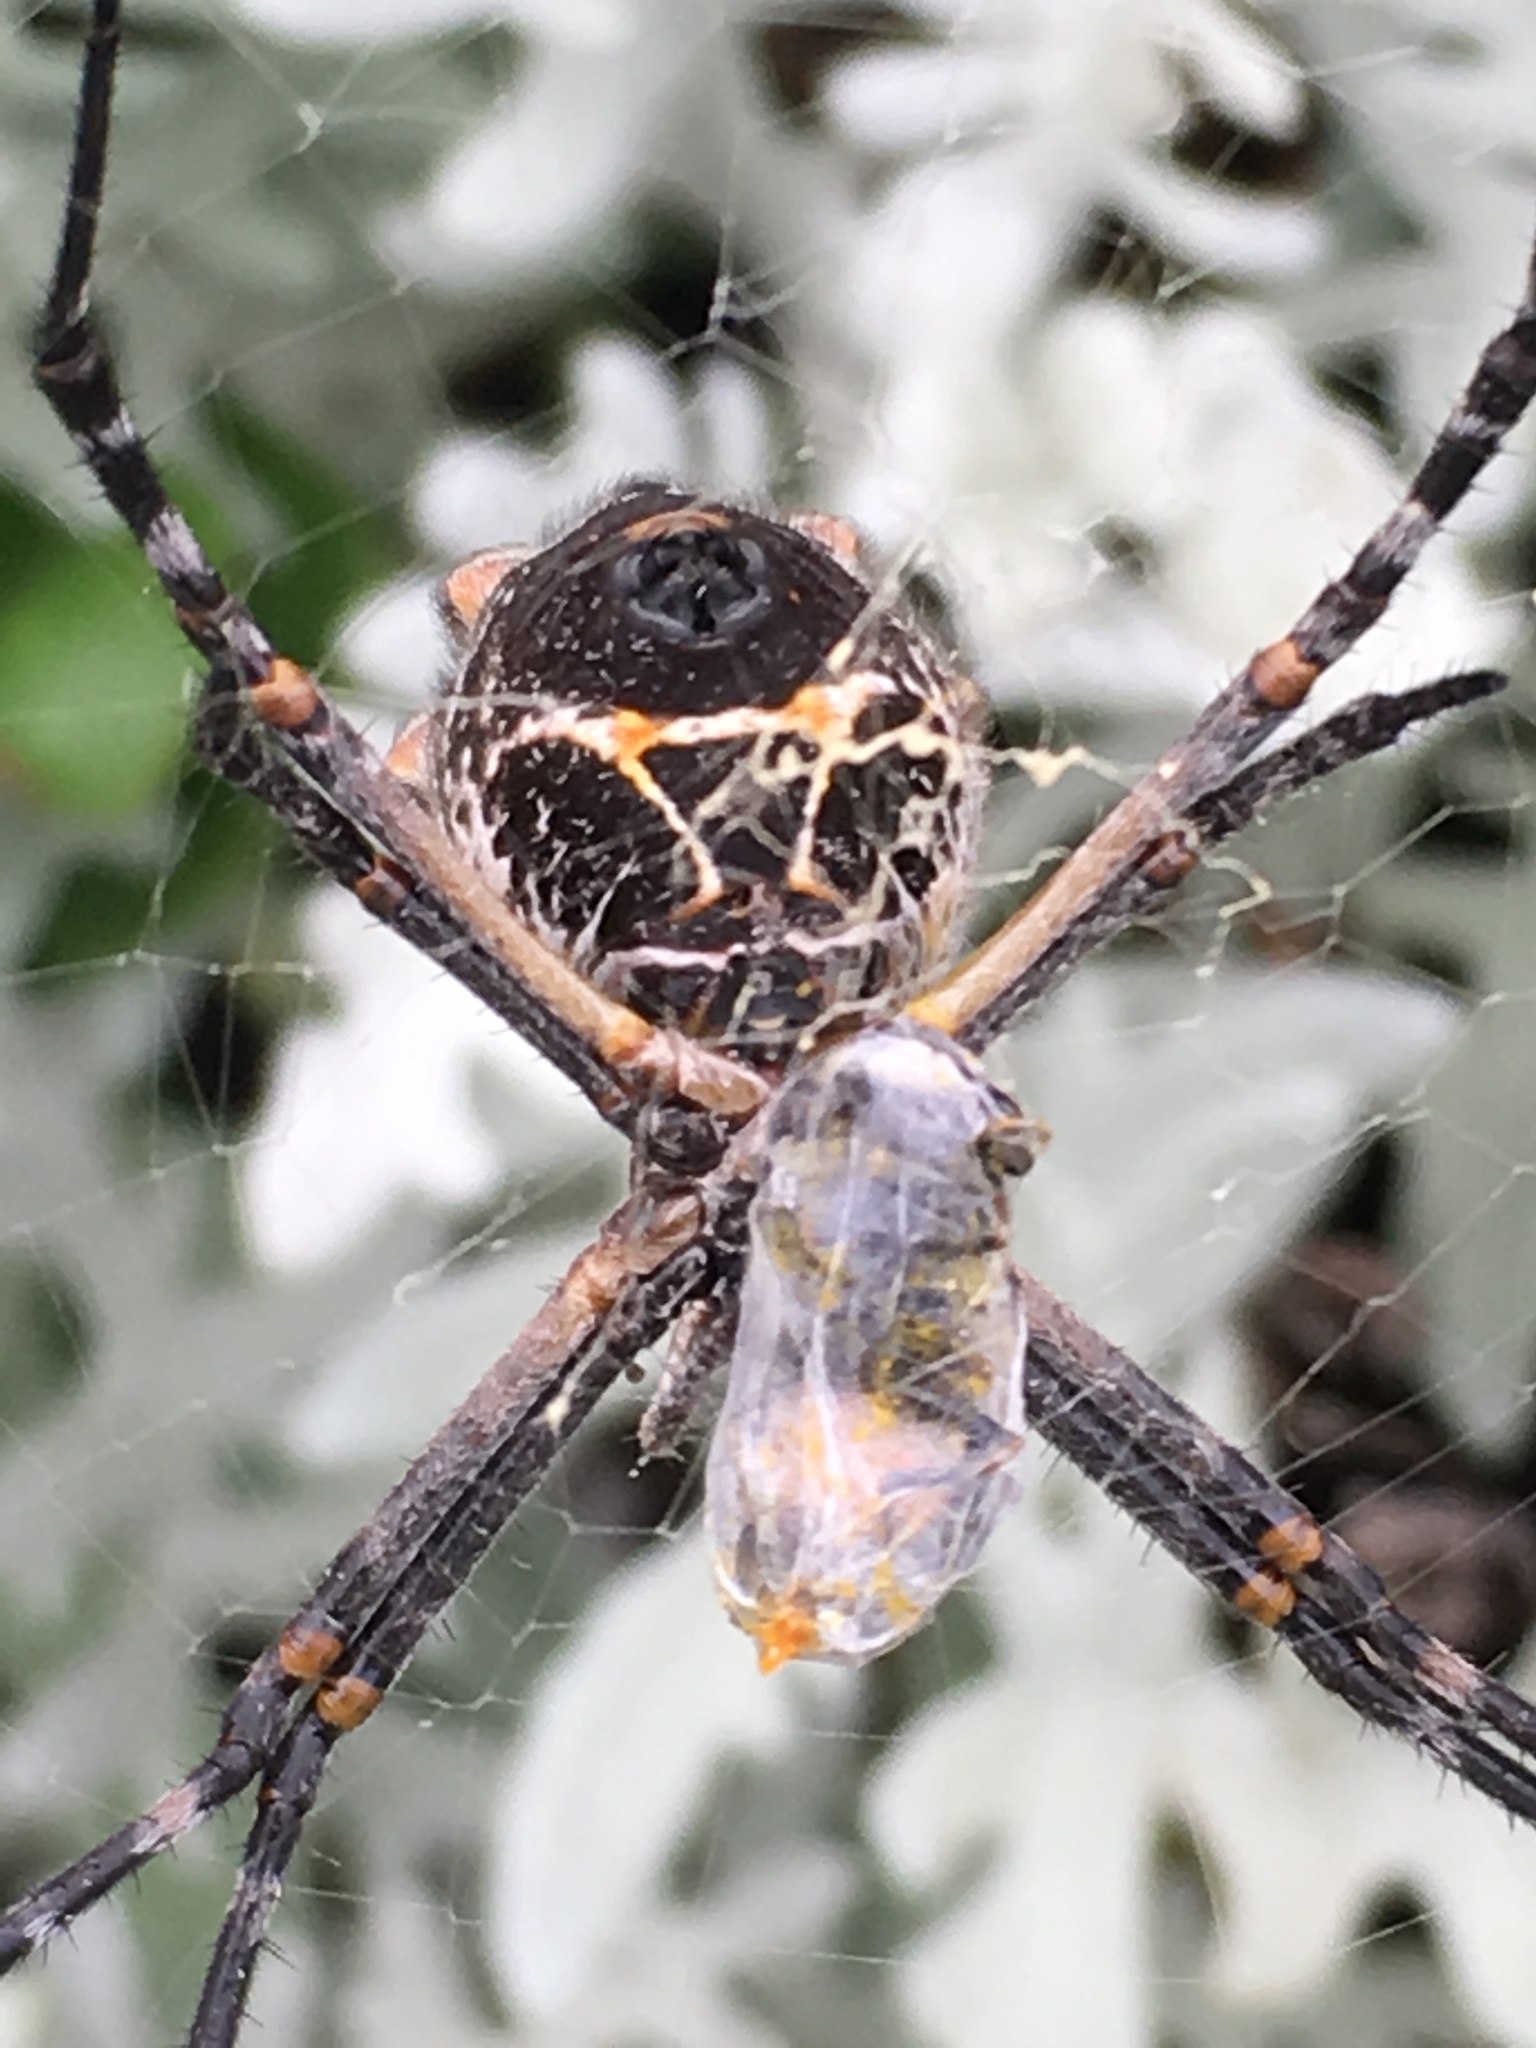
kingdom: Animalia
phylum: Arthropoda
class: Arachnida
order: Araneae
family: Araneidae
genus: Argiope
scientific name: Argiope argentata
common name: Orb weavers
